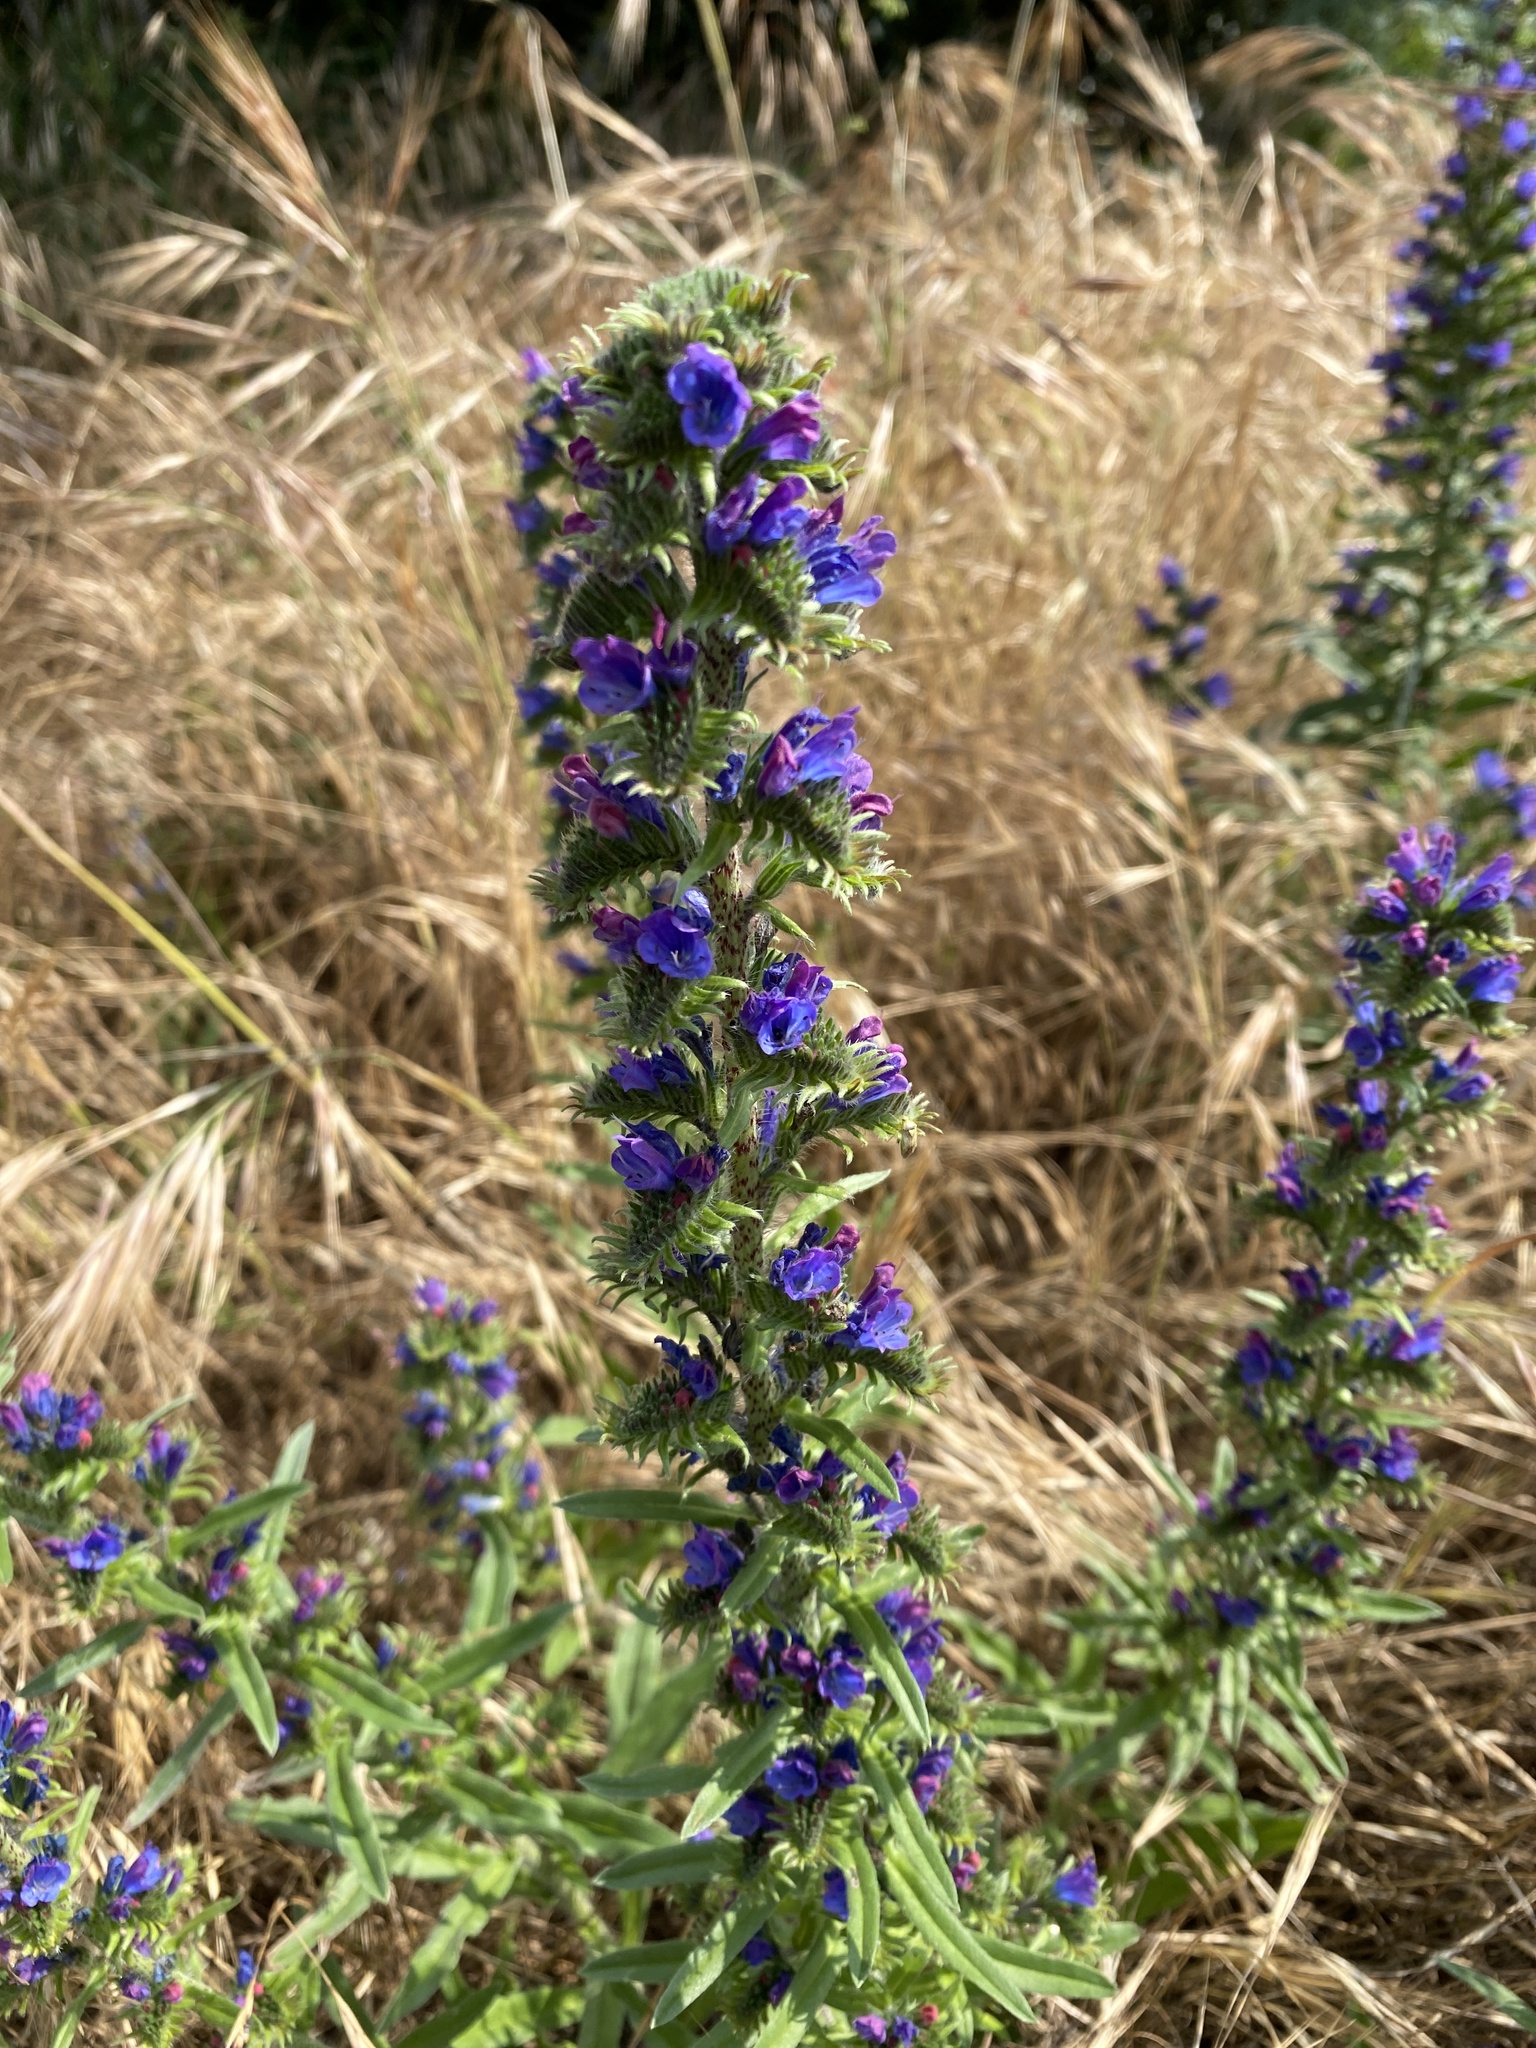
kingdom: Plantae
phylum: Tracheophyta
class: Magnoliopsida
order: Boraginales
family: Boraginaceae
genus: Echium
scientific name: Echium vulgare
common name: Common viper's bugloss
